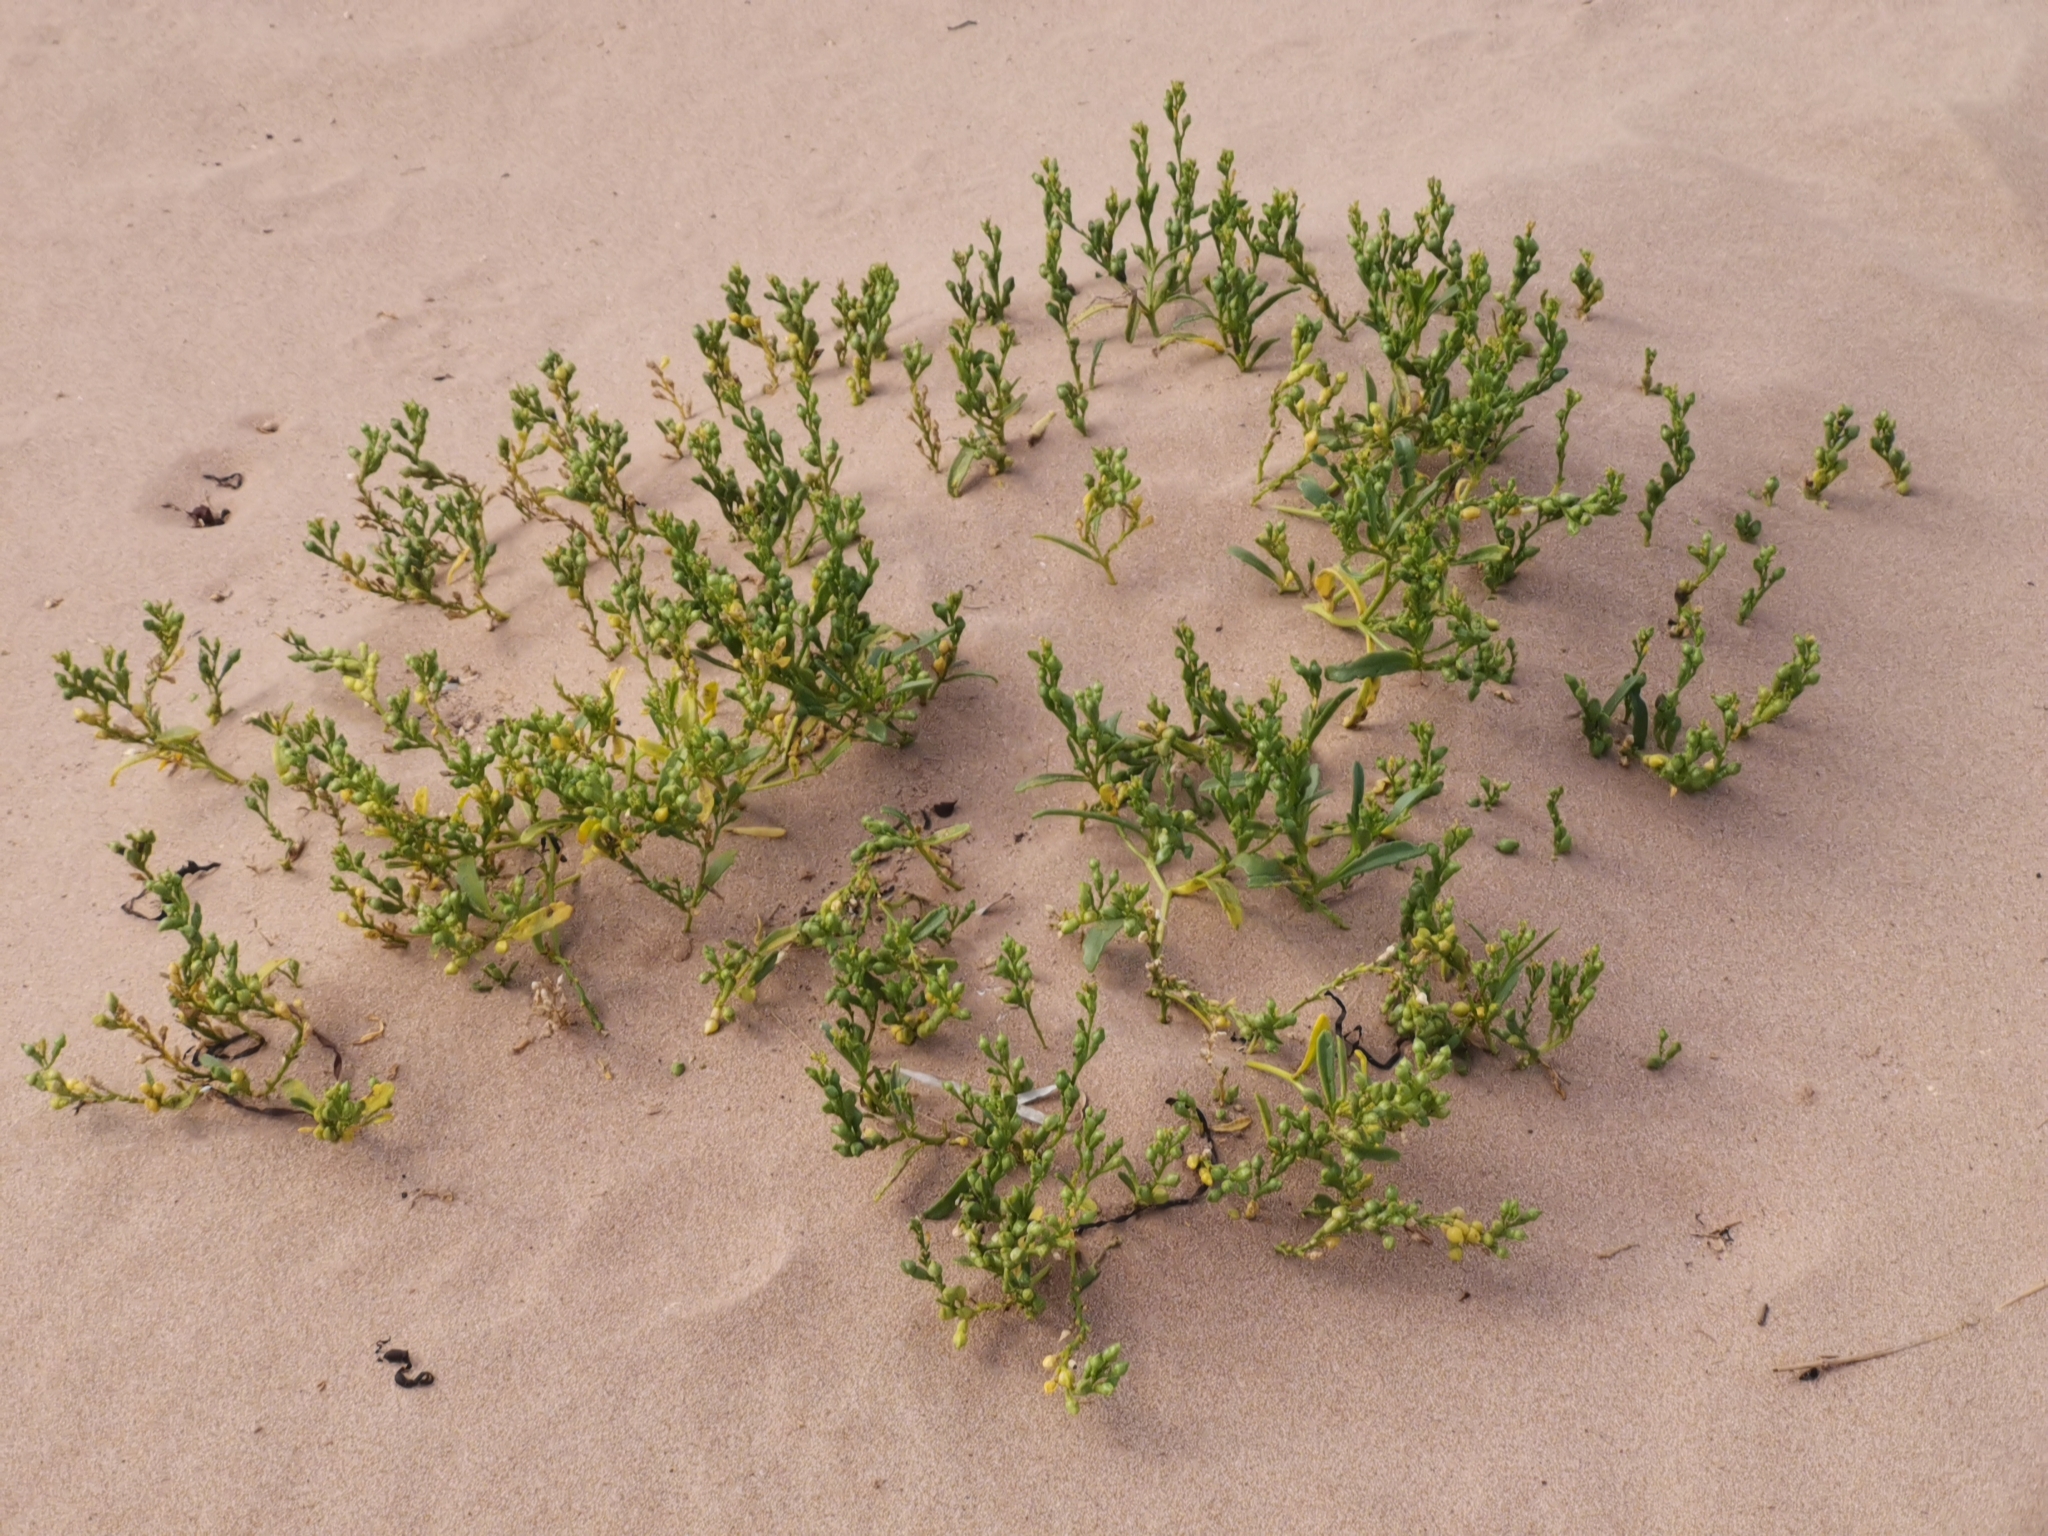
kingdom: Plantae
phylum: Tracheophyta
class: Magnoliopsida
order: Brassicales
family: Brassicaceae
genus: Cakile
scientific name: Cakile edentula
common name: American sea rocket
